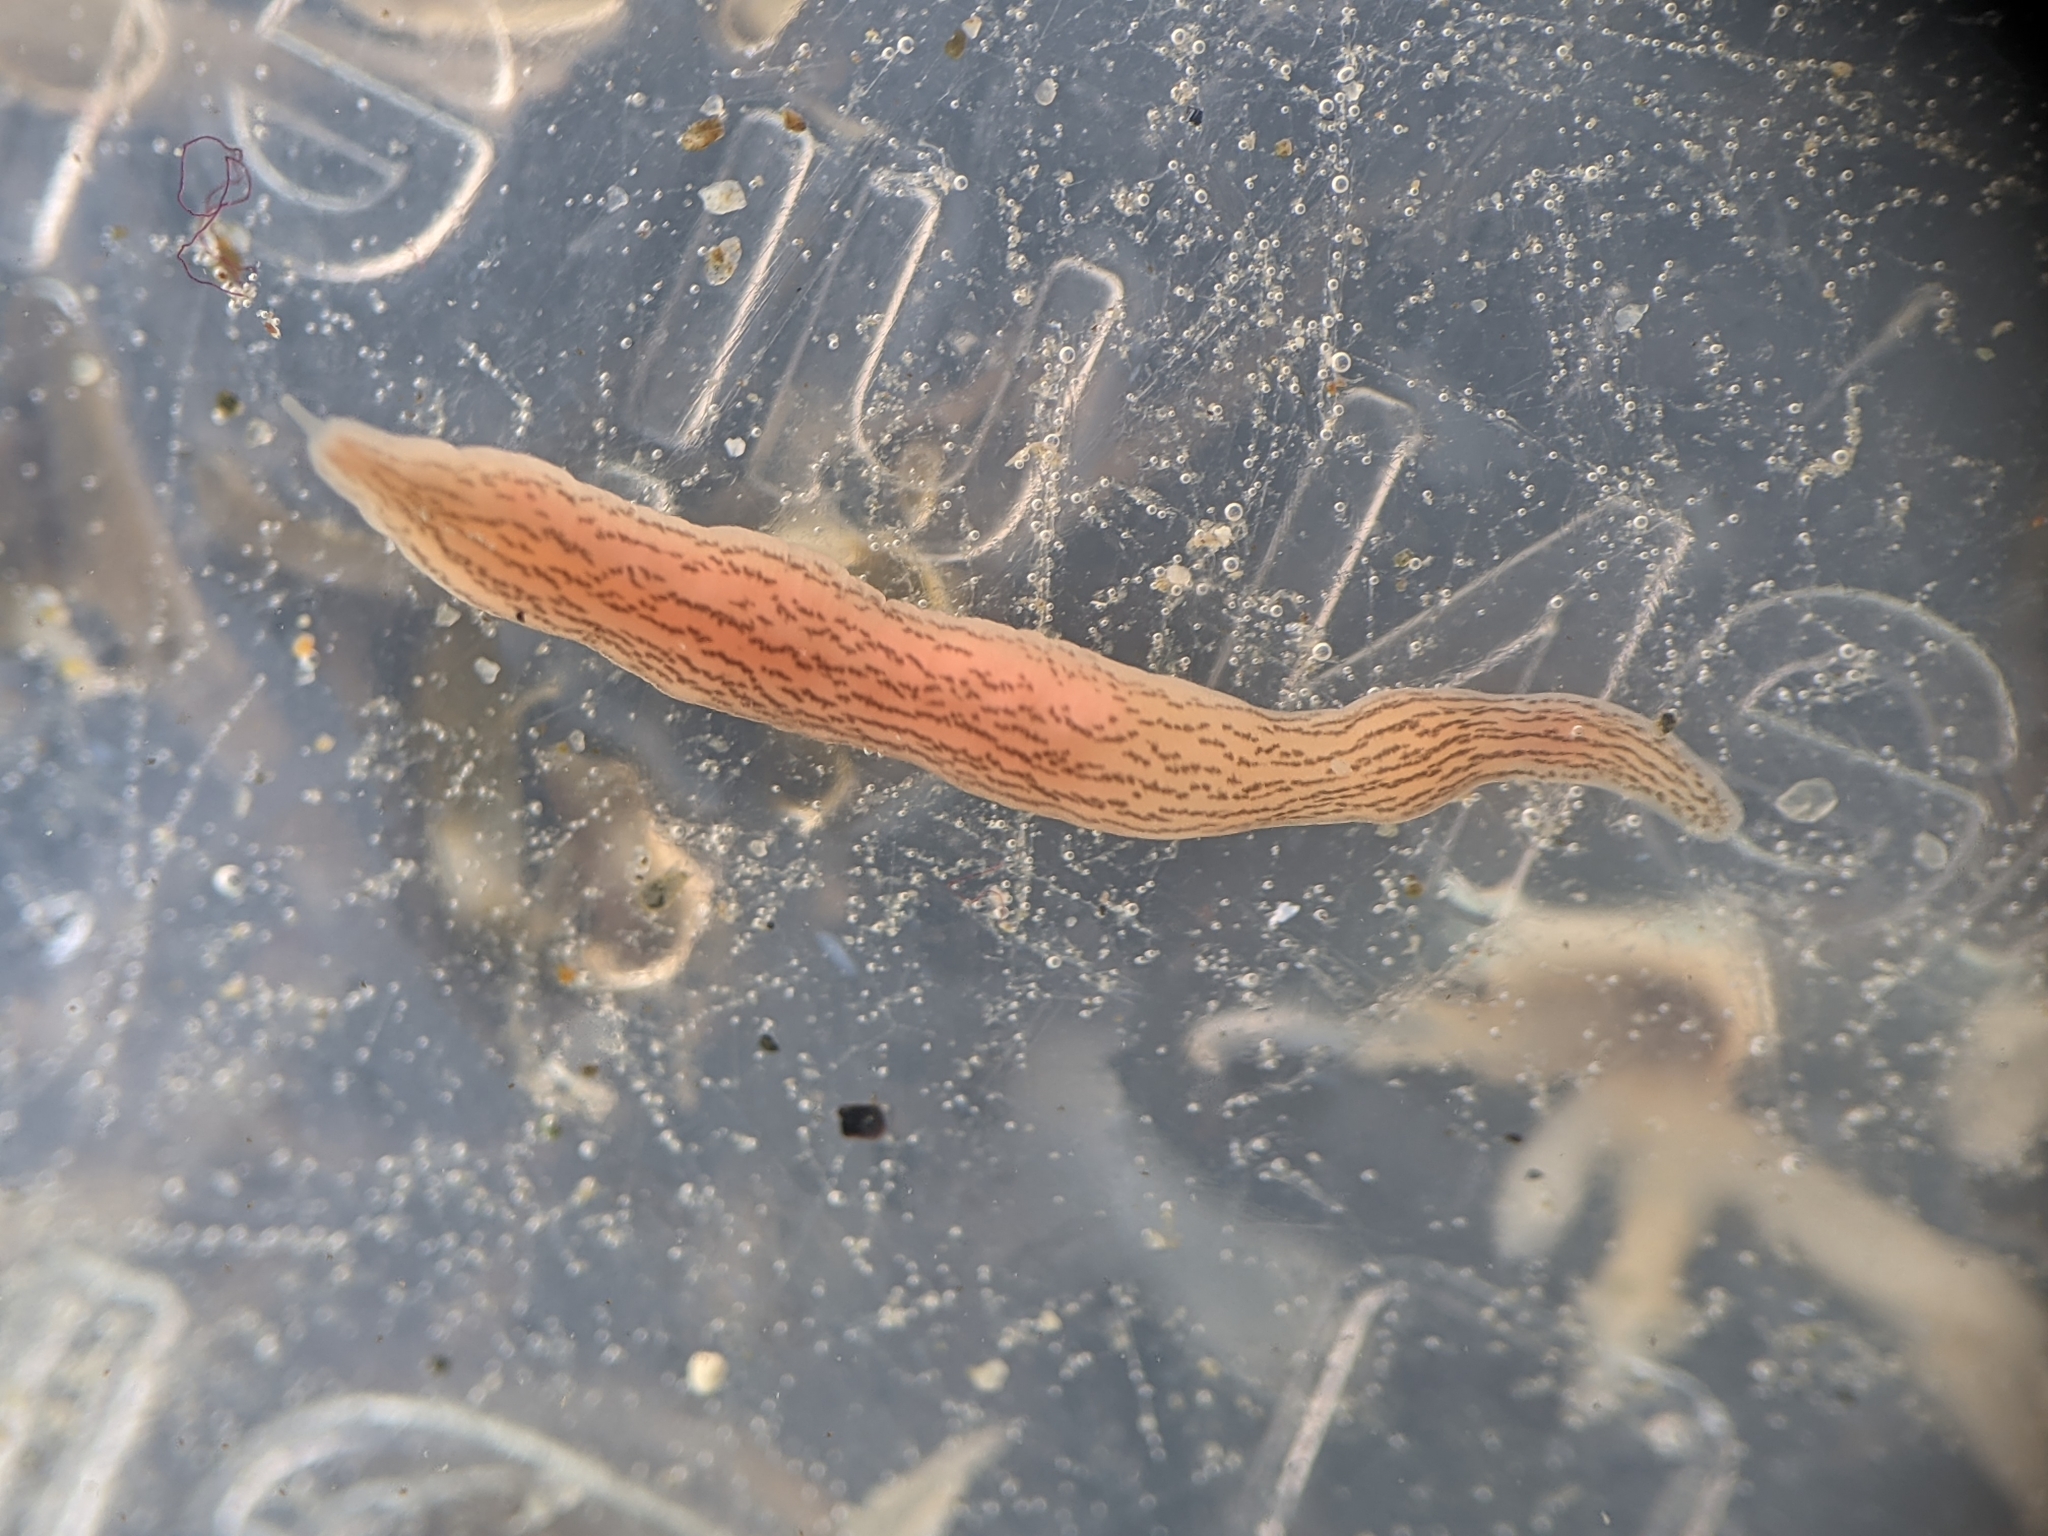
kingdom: Animalia
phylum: Nemertea
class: Pilidiophora
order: Heteronemertea
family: Lineidae
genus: Cerebratulus
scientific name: Cerebratulus lineolatus
